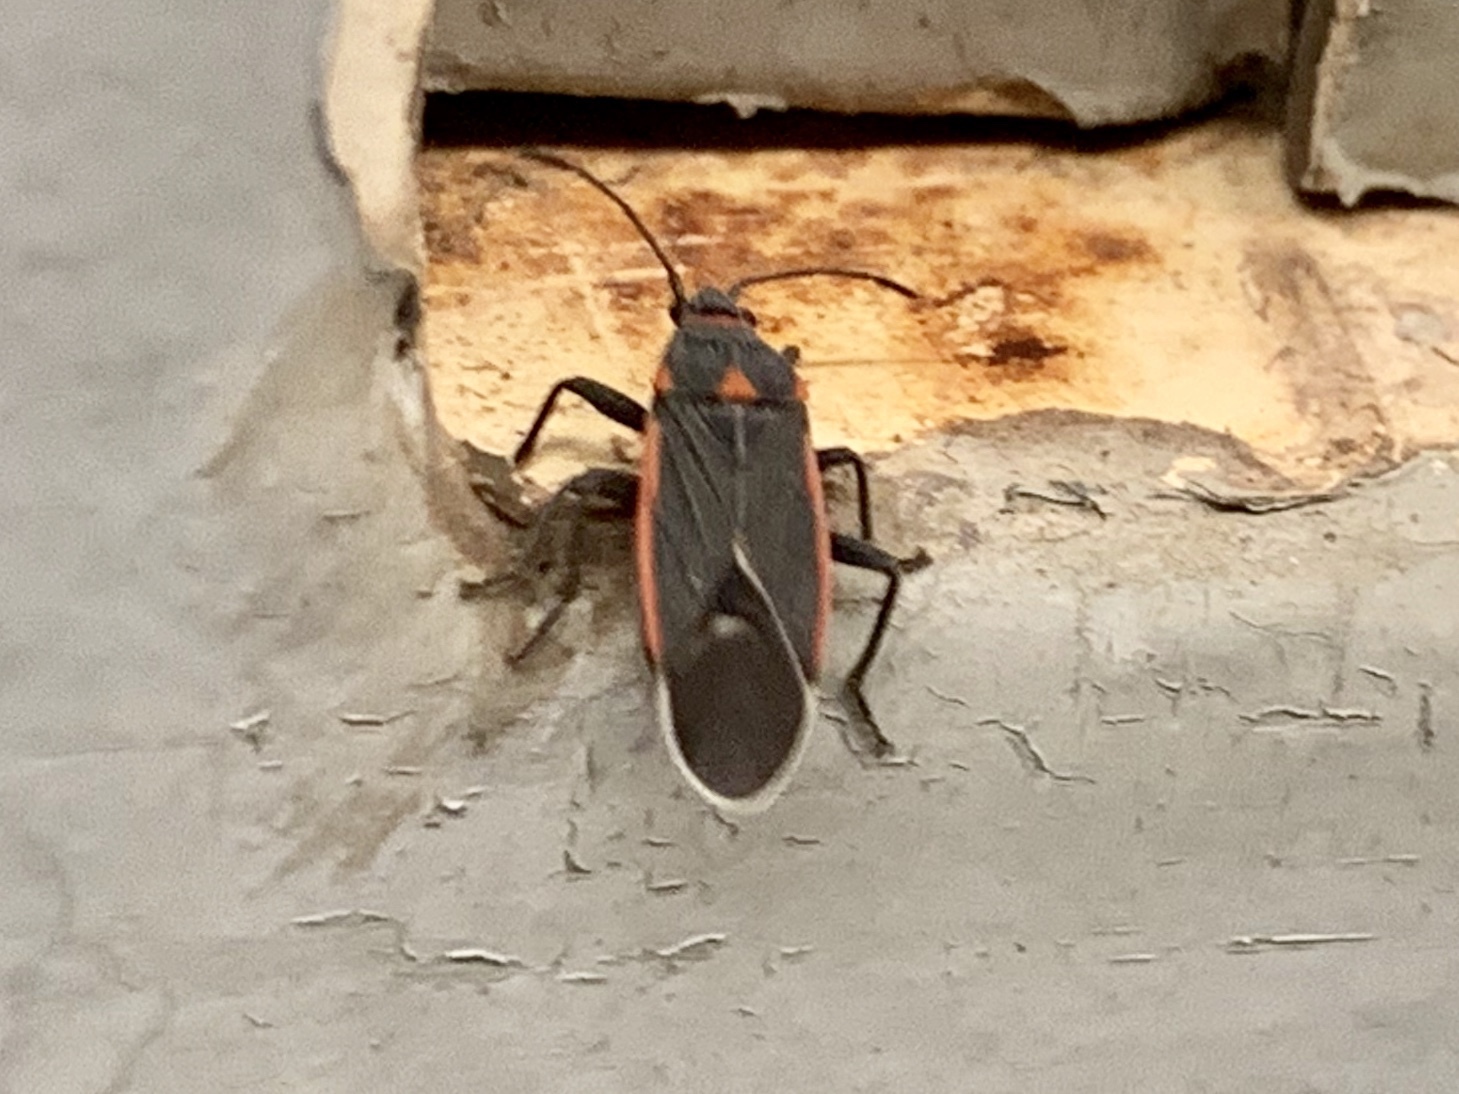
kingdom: Animalia
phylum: Arthropoda
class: Insecta
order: Hemiptera
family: Lygaeidae
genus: Melacoryphus
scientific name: Melacoryphus lateralis
